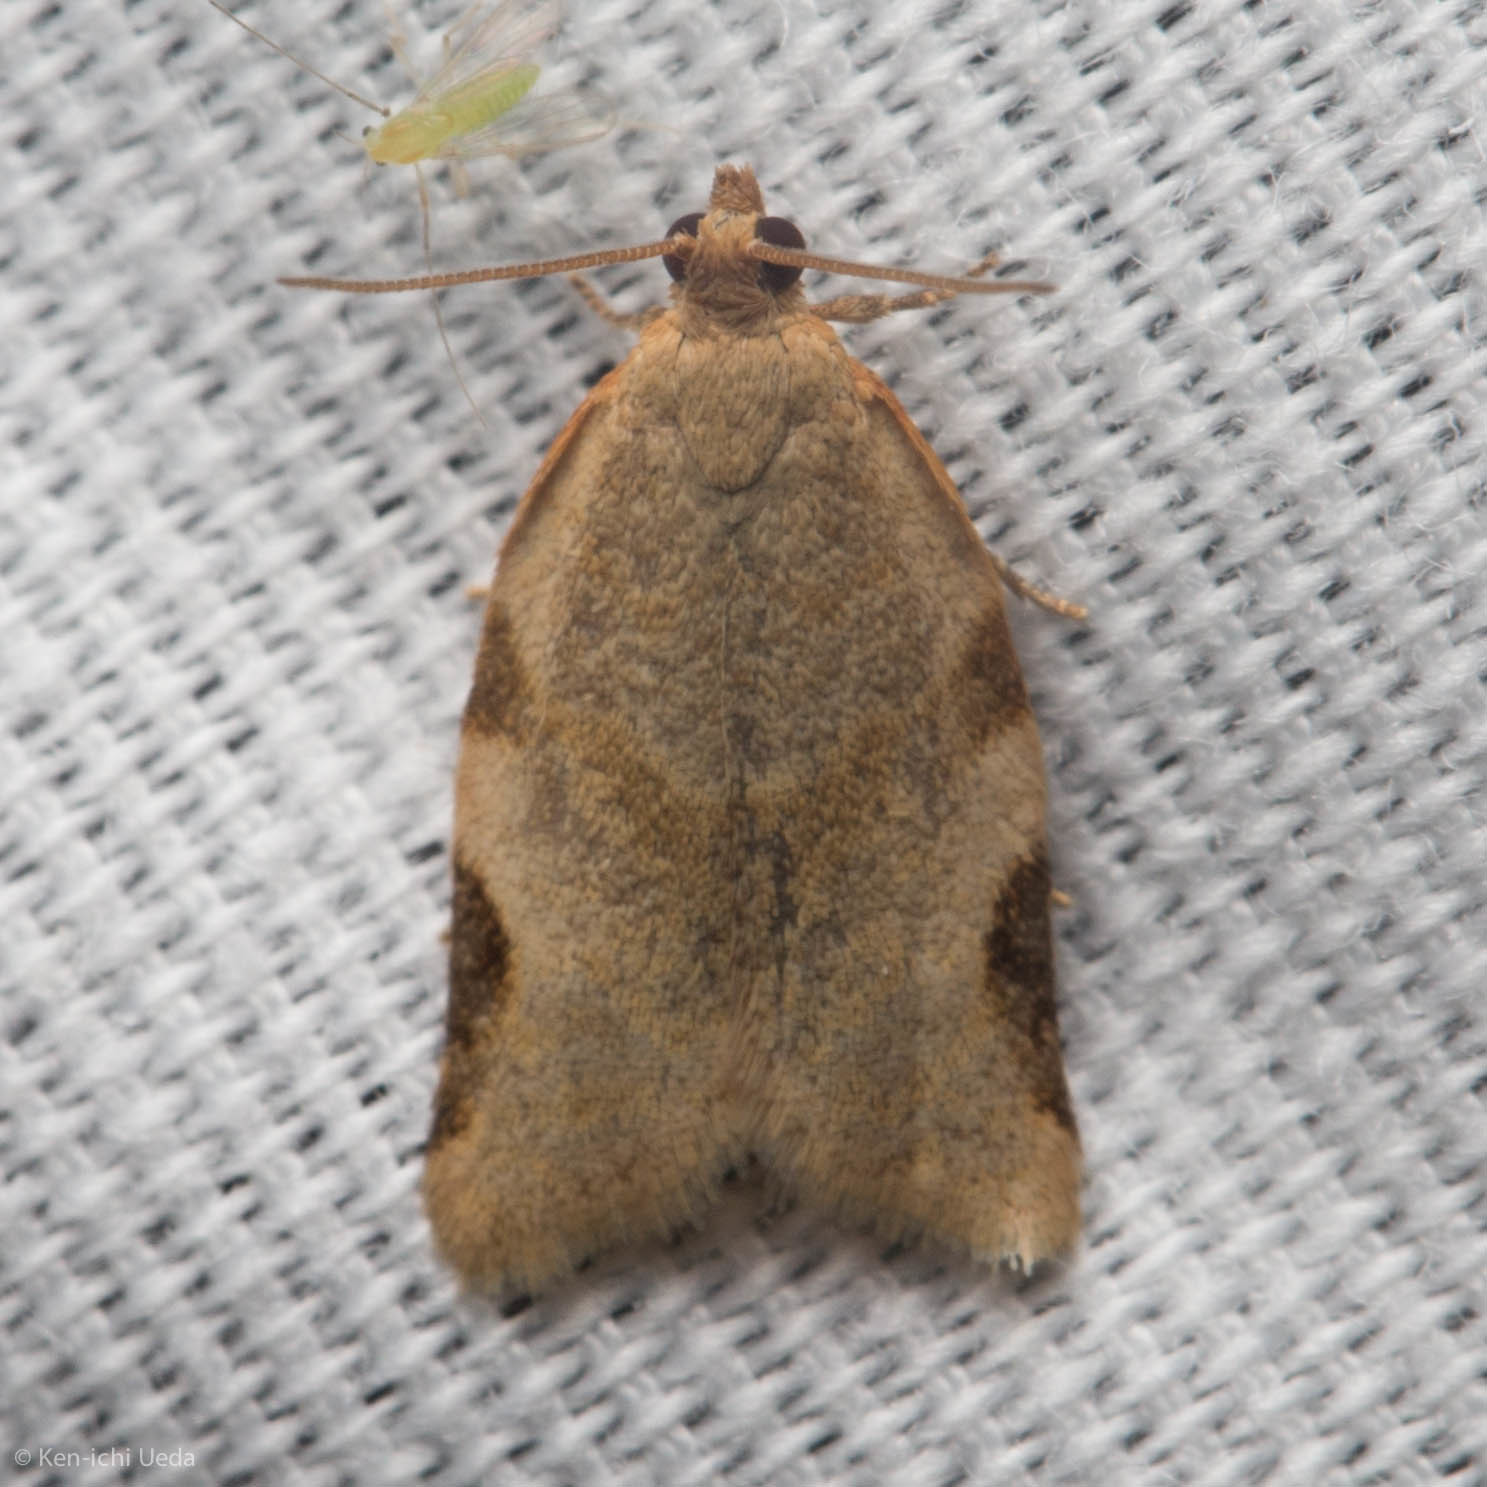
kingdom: Animalia
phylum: Arthropoda
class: Insecta
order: Lepidoptera
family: Tortricidae
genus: Clepsis
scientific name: Clepsis virescana
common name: Greenish apple moth
